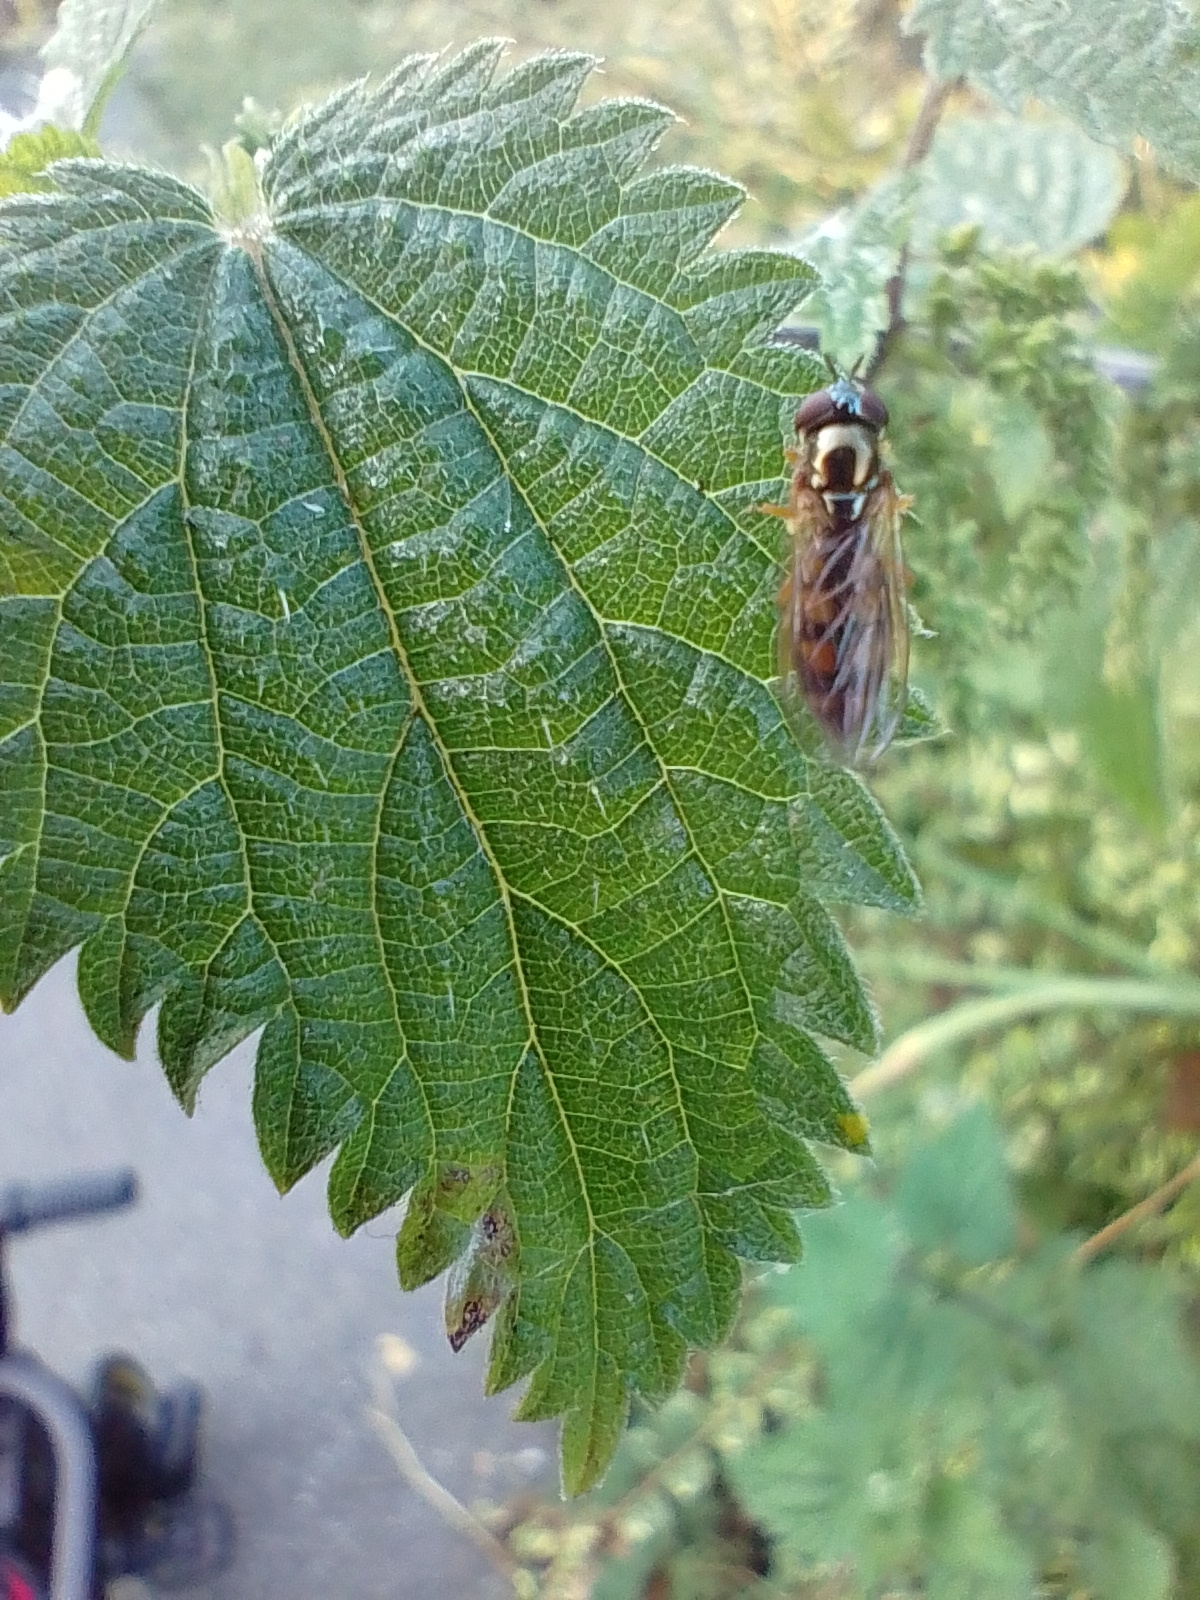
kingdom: Animalia
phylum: Arthropoda
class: Insecta
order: Diptera
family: Syrphidae
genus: Melanostoma
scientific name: Melanostoma
